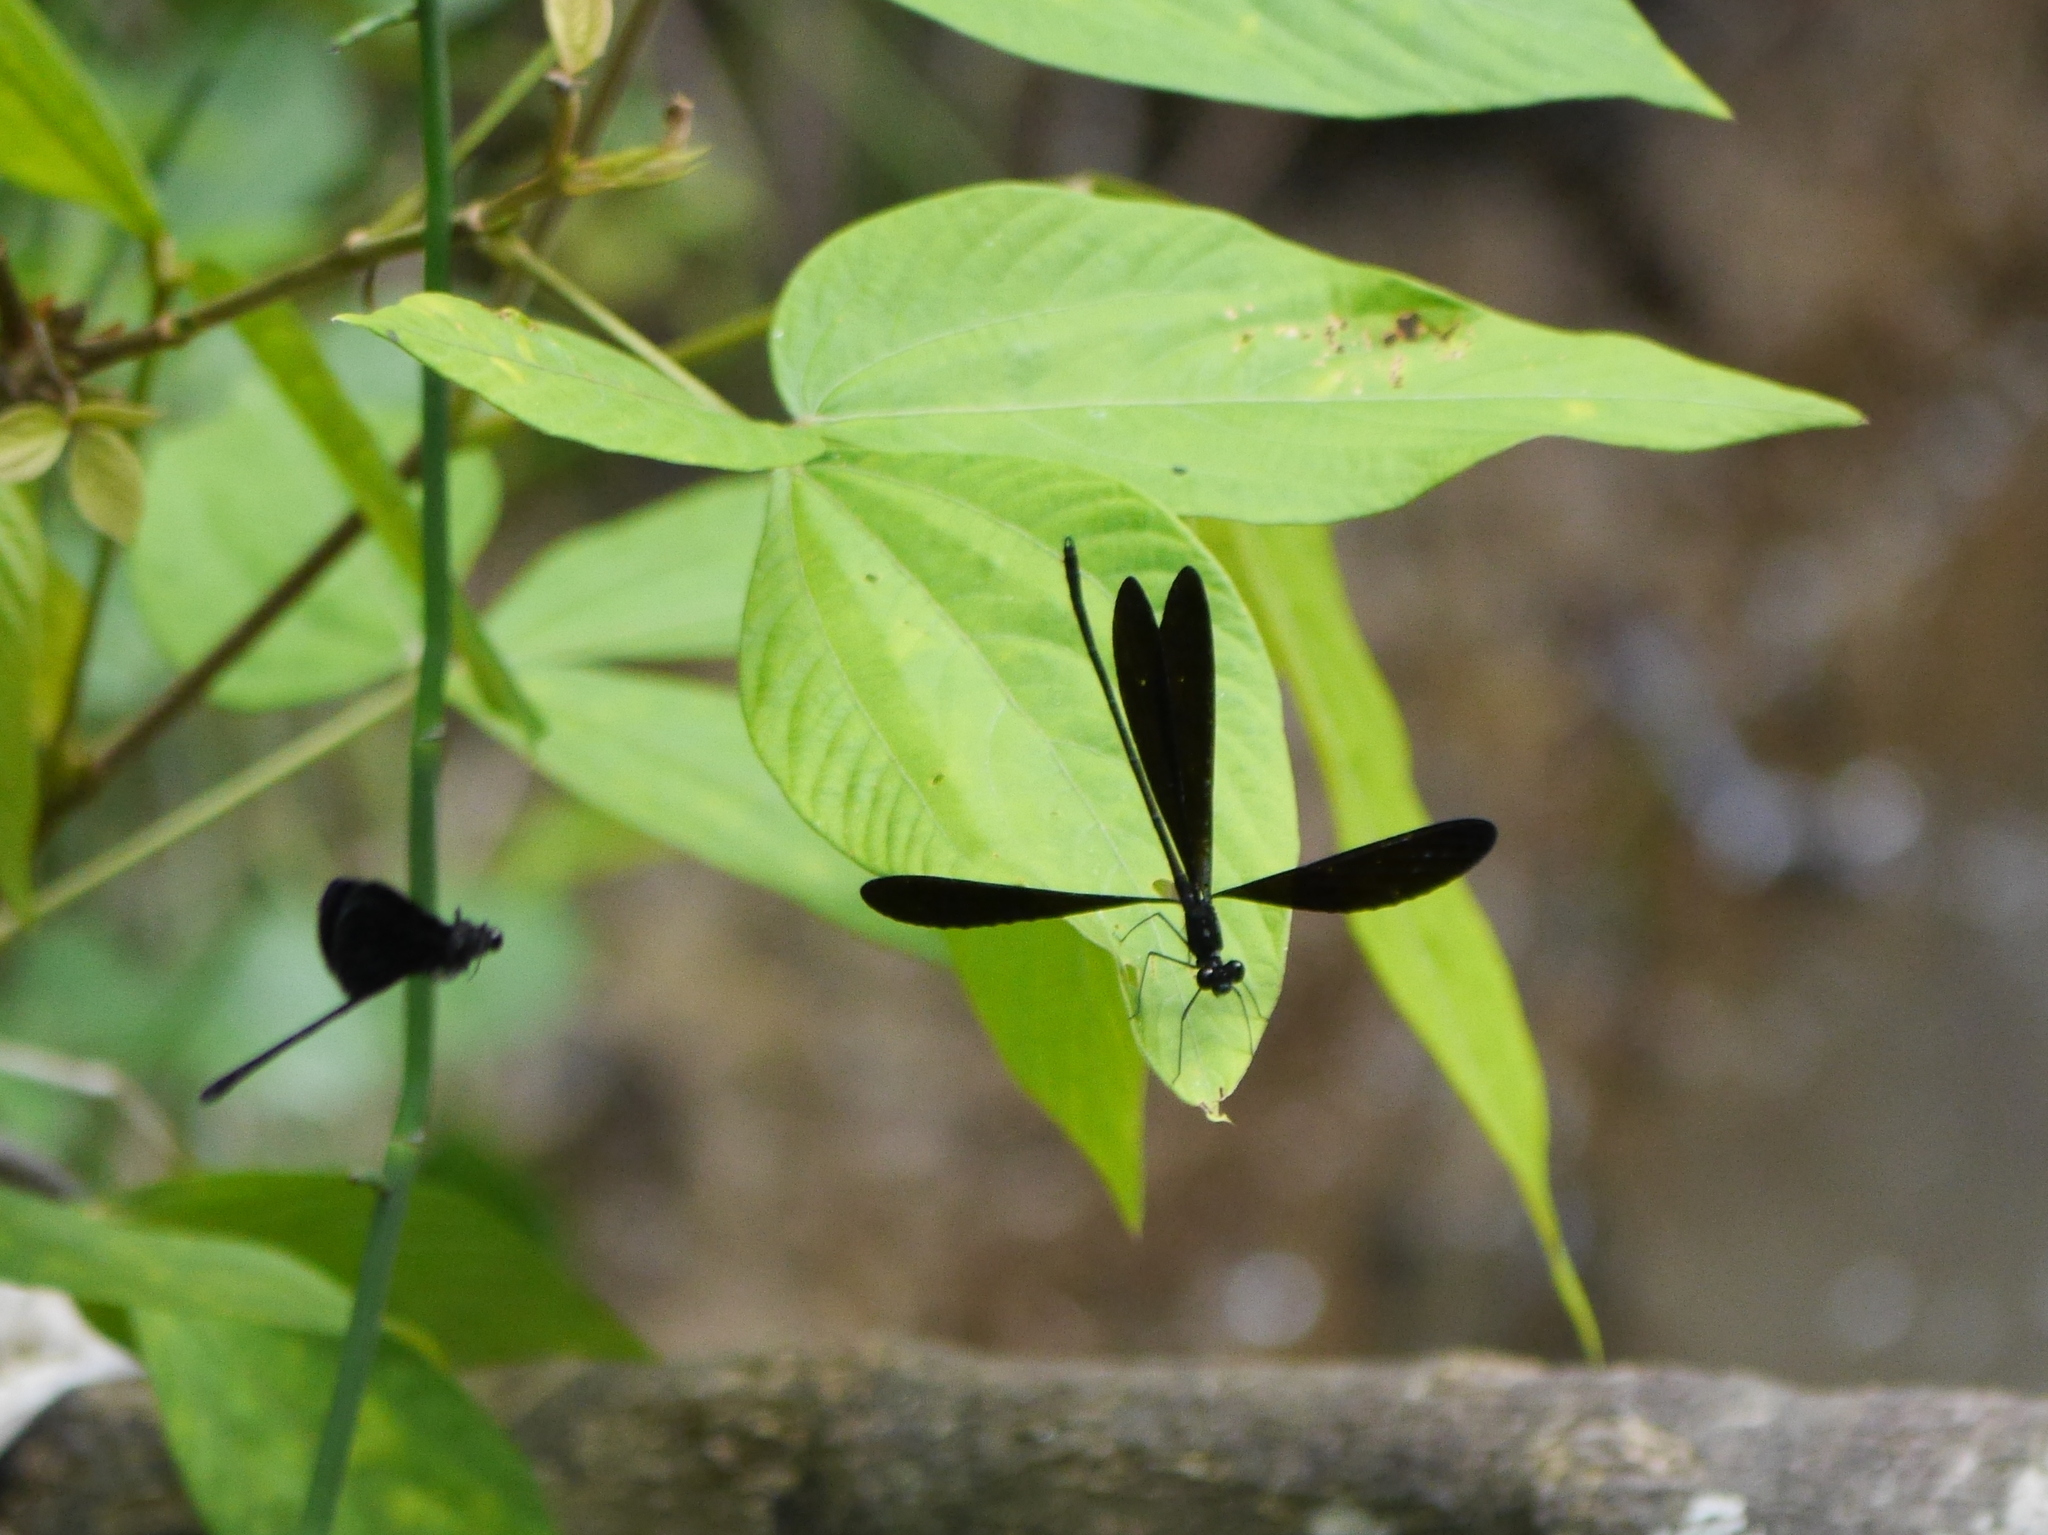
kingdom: Animalia
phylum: Arthropoda
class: Insecta
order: Odonata
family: Calopterygidae
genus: Vestalis
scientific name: Vestalis lugens
